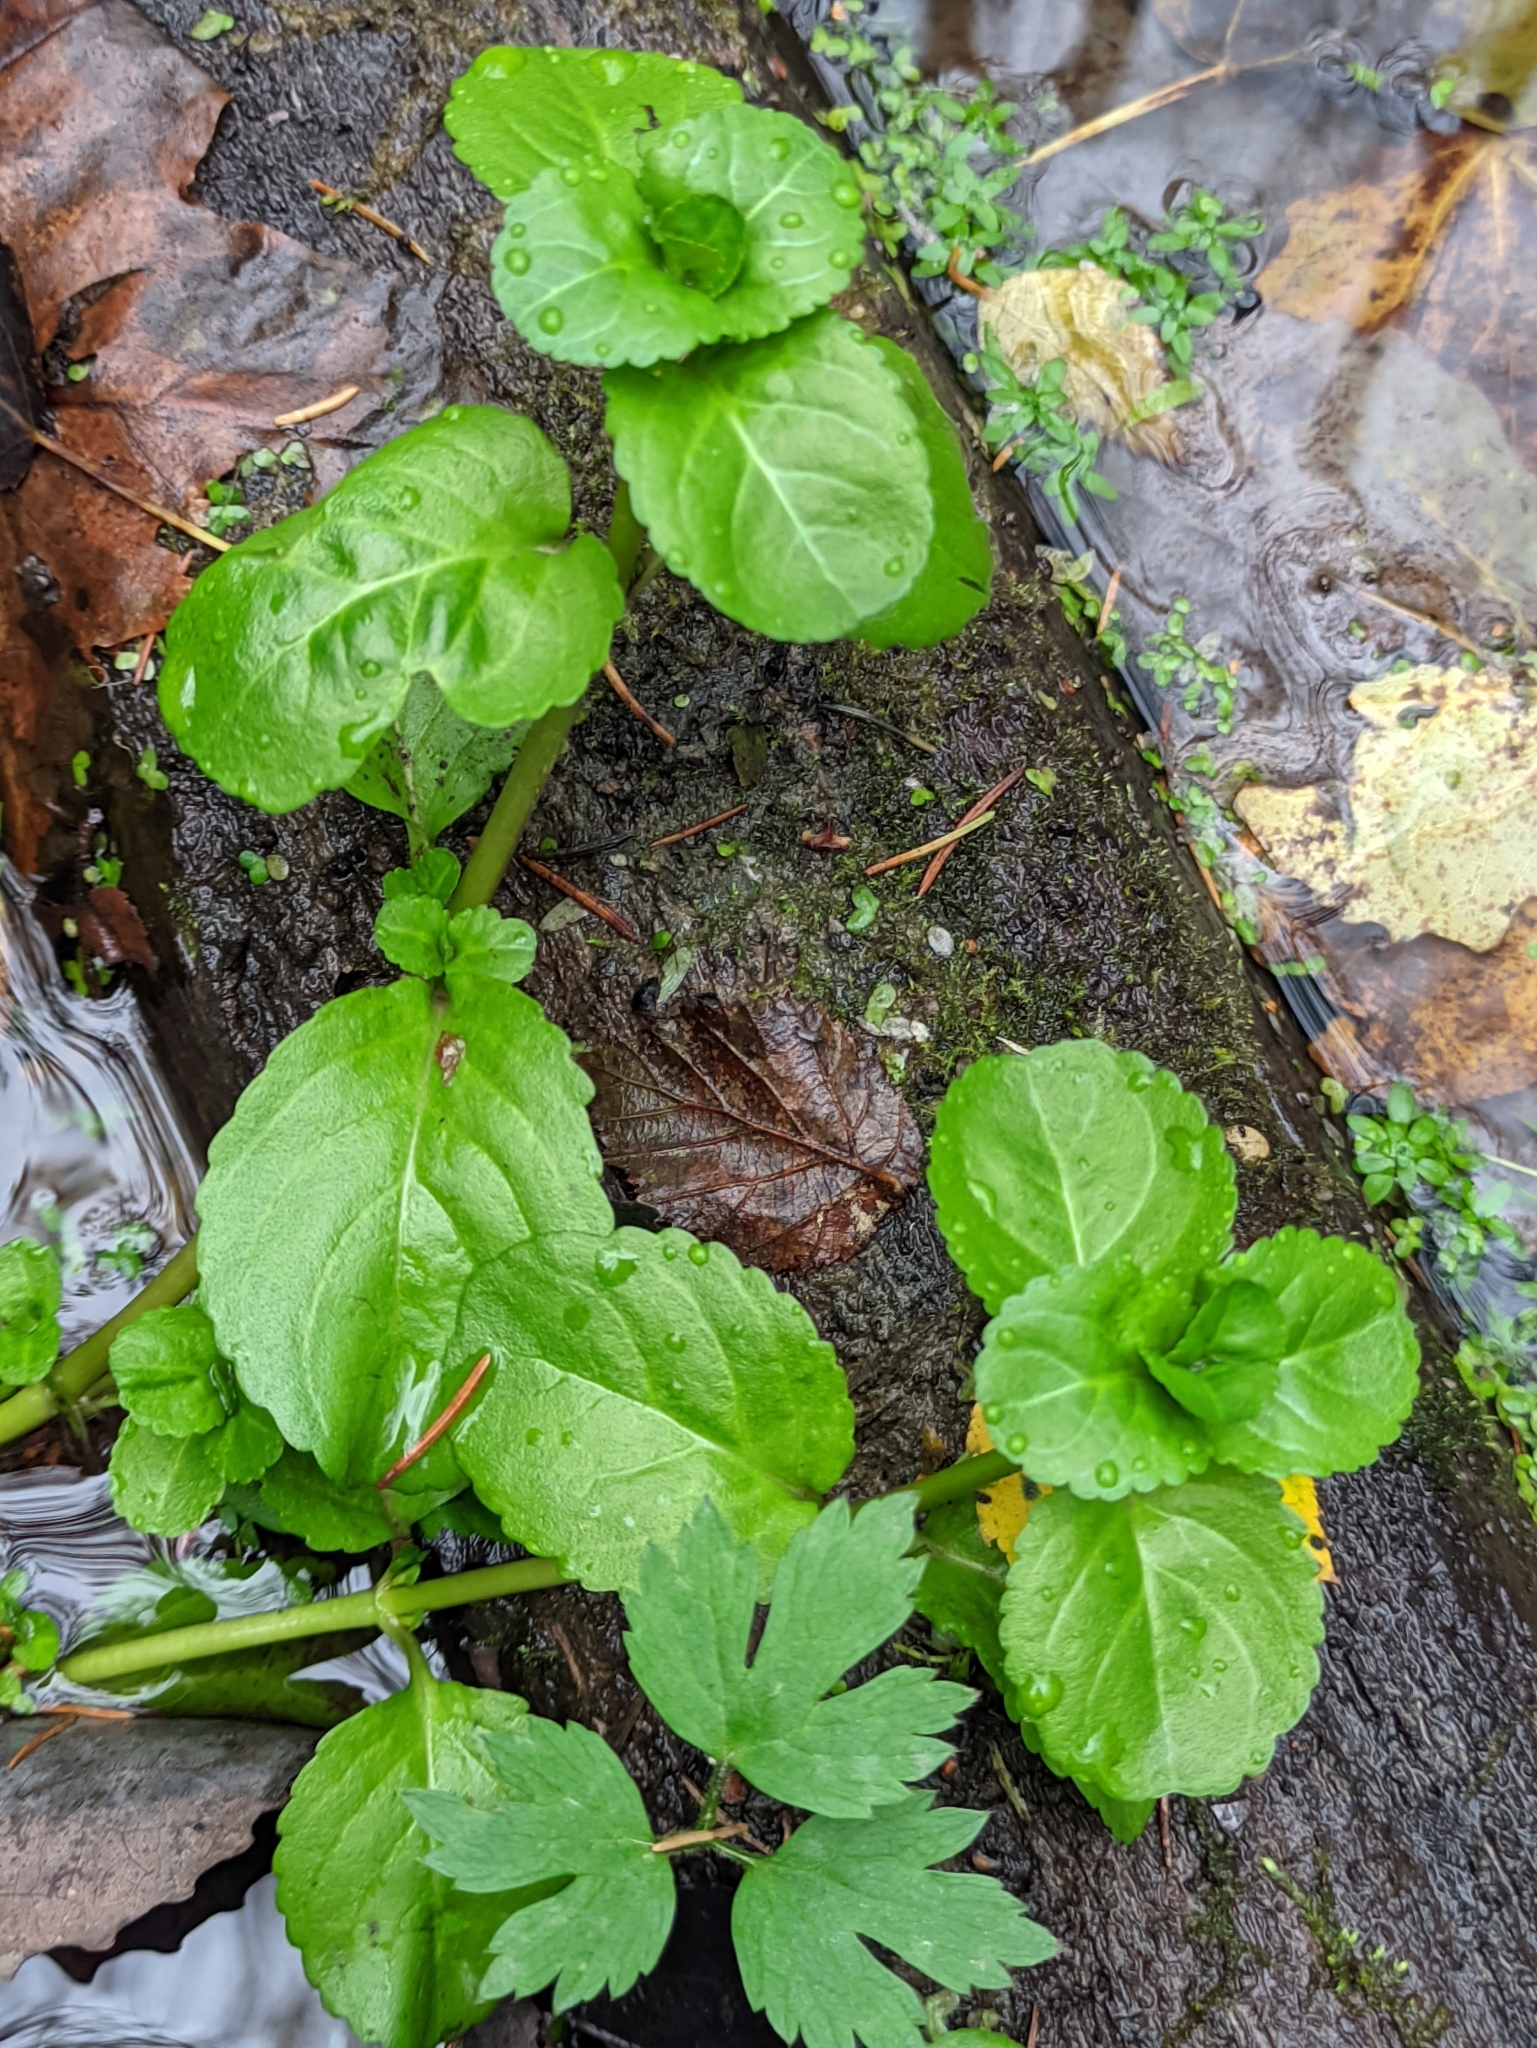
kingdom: Plantae
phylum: Tracheophyta
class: Magnoliopsida
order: Lamiales
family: Plantaginaceae
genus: Veronica
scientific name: Veronica beccabunga
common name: Brooklime
